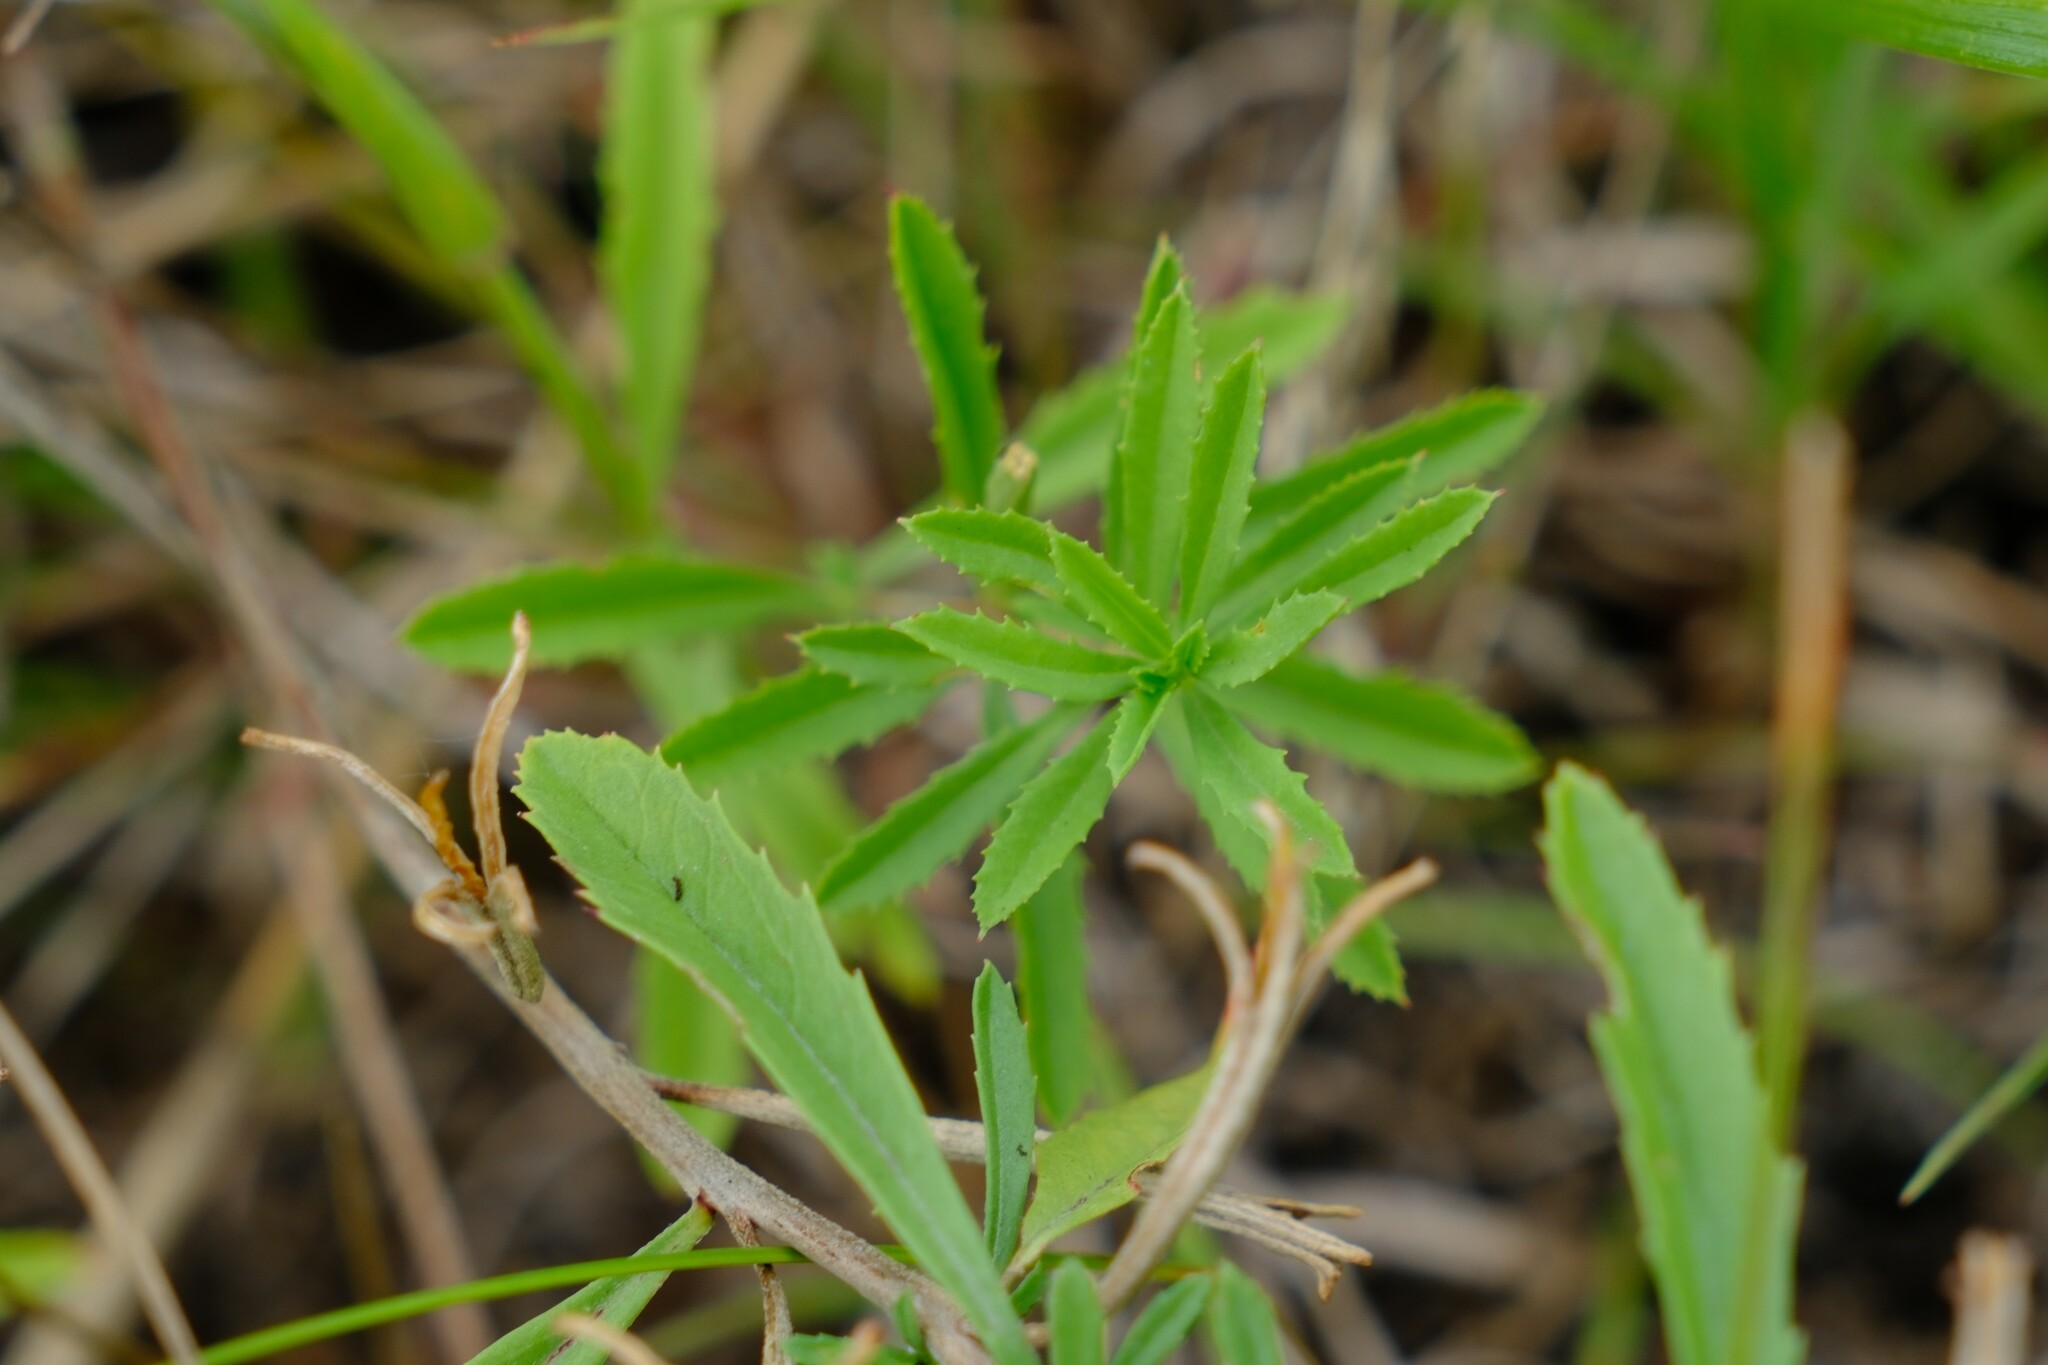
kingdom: Plantae
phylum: Tracheophyta
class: Magnoliopsida
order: Myrtales
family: Onagraceae
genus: Oenothera
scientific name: Oenothera serrulata
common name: Half-shrub calylophus
